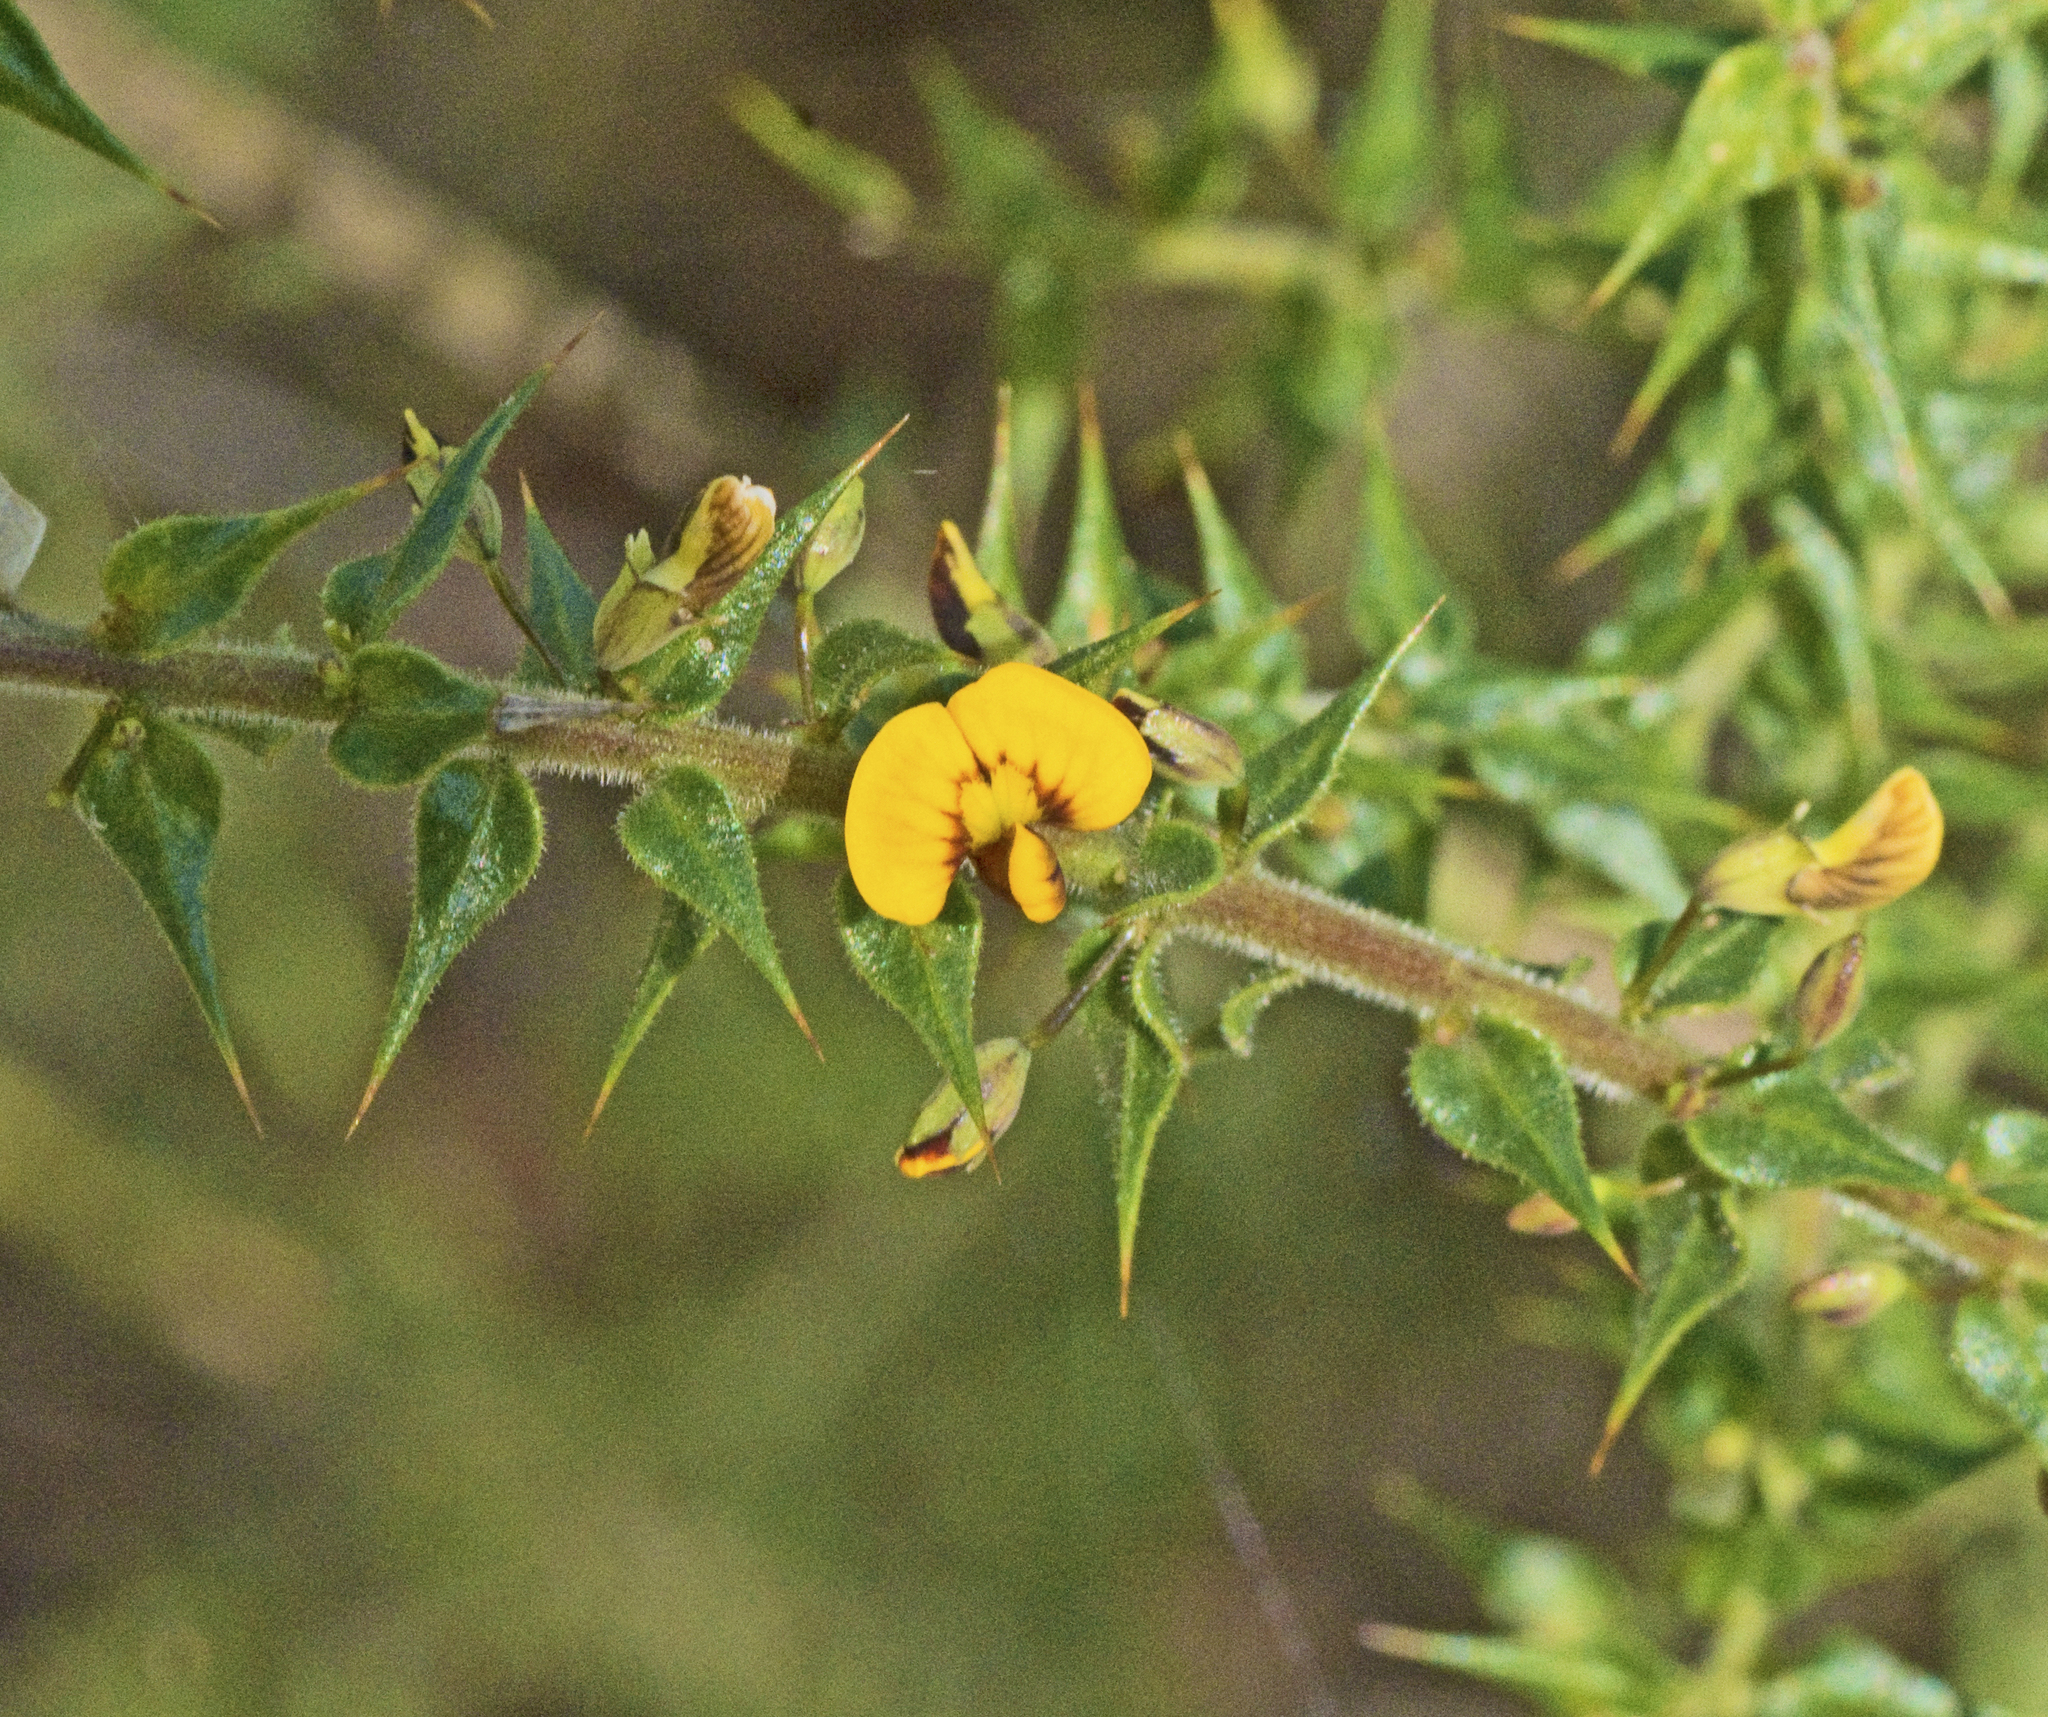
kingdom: Plantae
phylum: Tracheophyta
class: Magnoliopsida
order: Fabales
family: Fabaceae
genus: Daviesia
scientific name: Daviesia villifera
